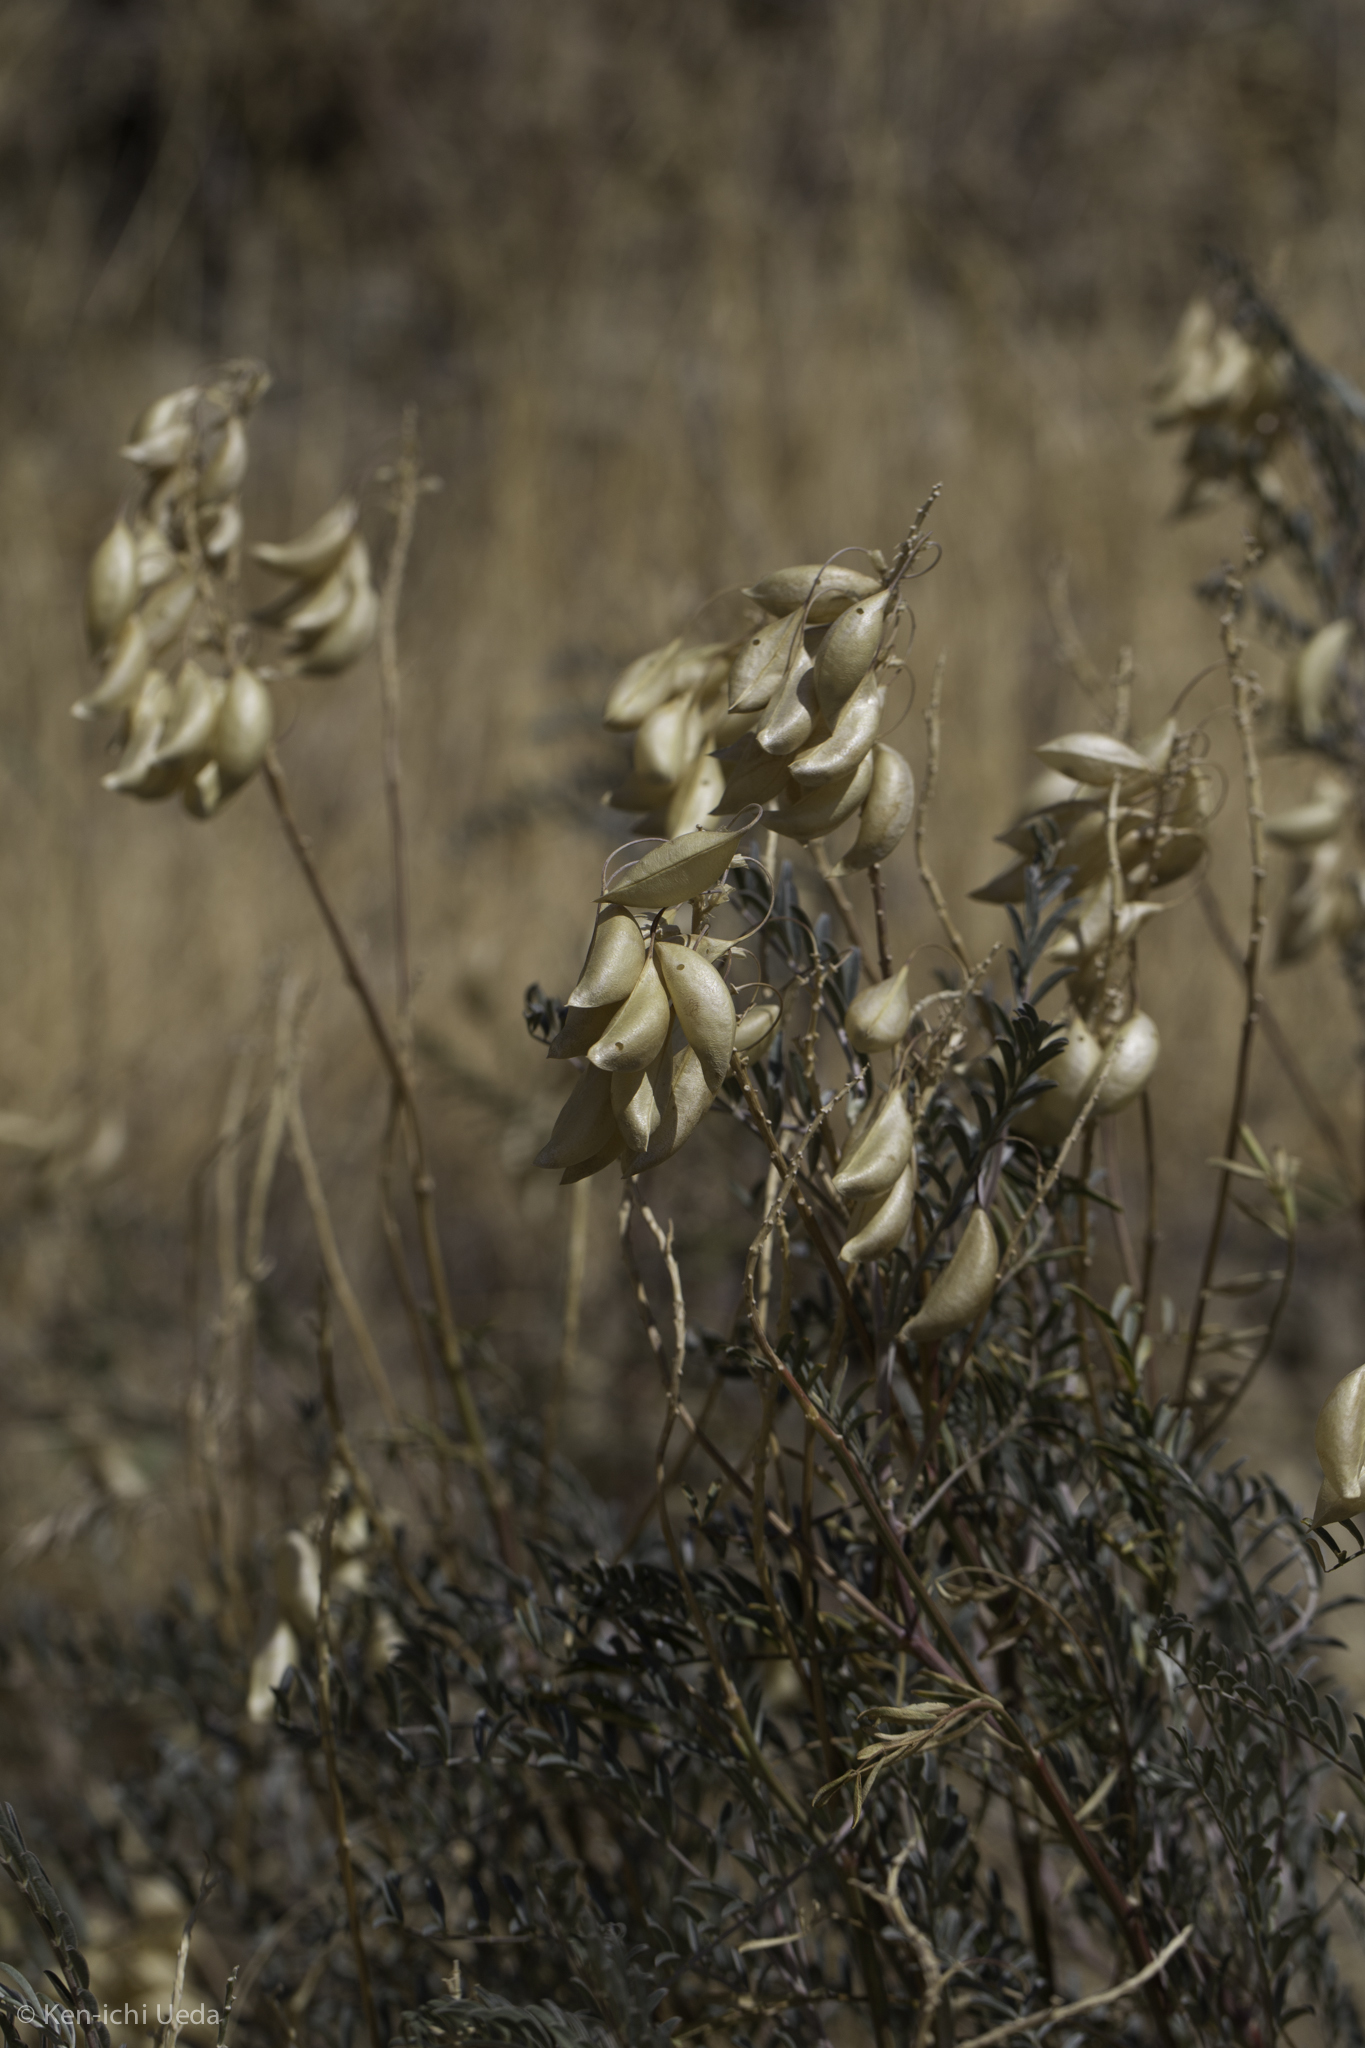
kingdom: Plantae
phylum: Tracheophyta
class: Magnoliopsida
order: Fabales
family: Fabaceae
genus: Astragalus
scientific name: Astragalus asymmetricus
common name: Horse locoweed
